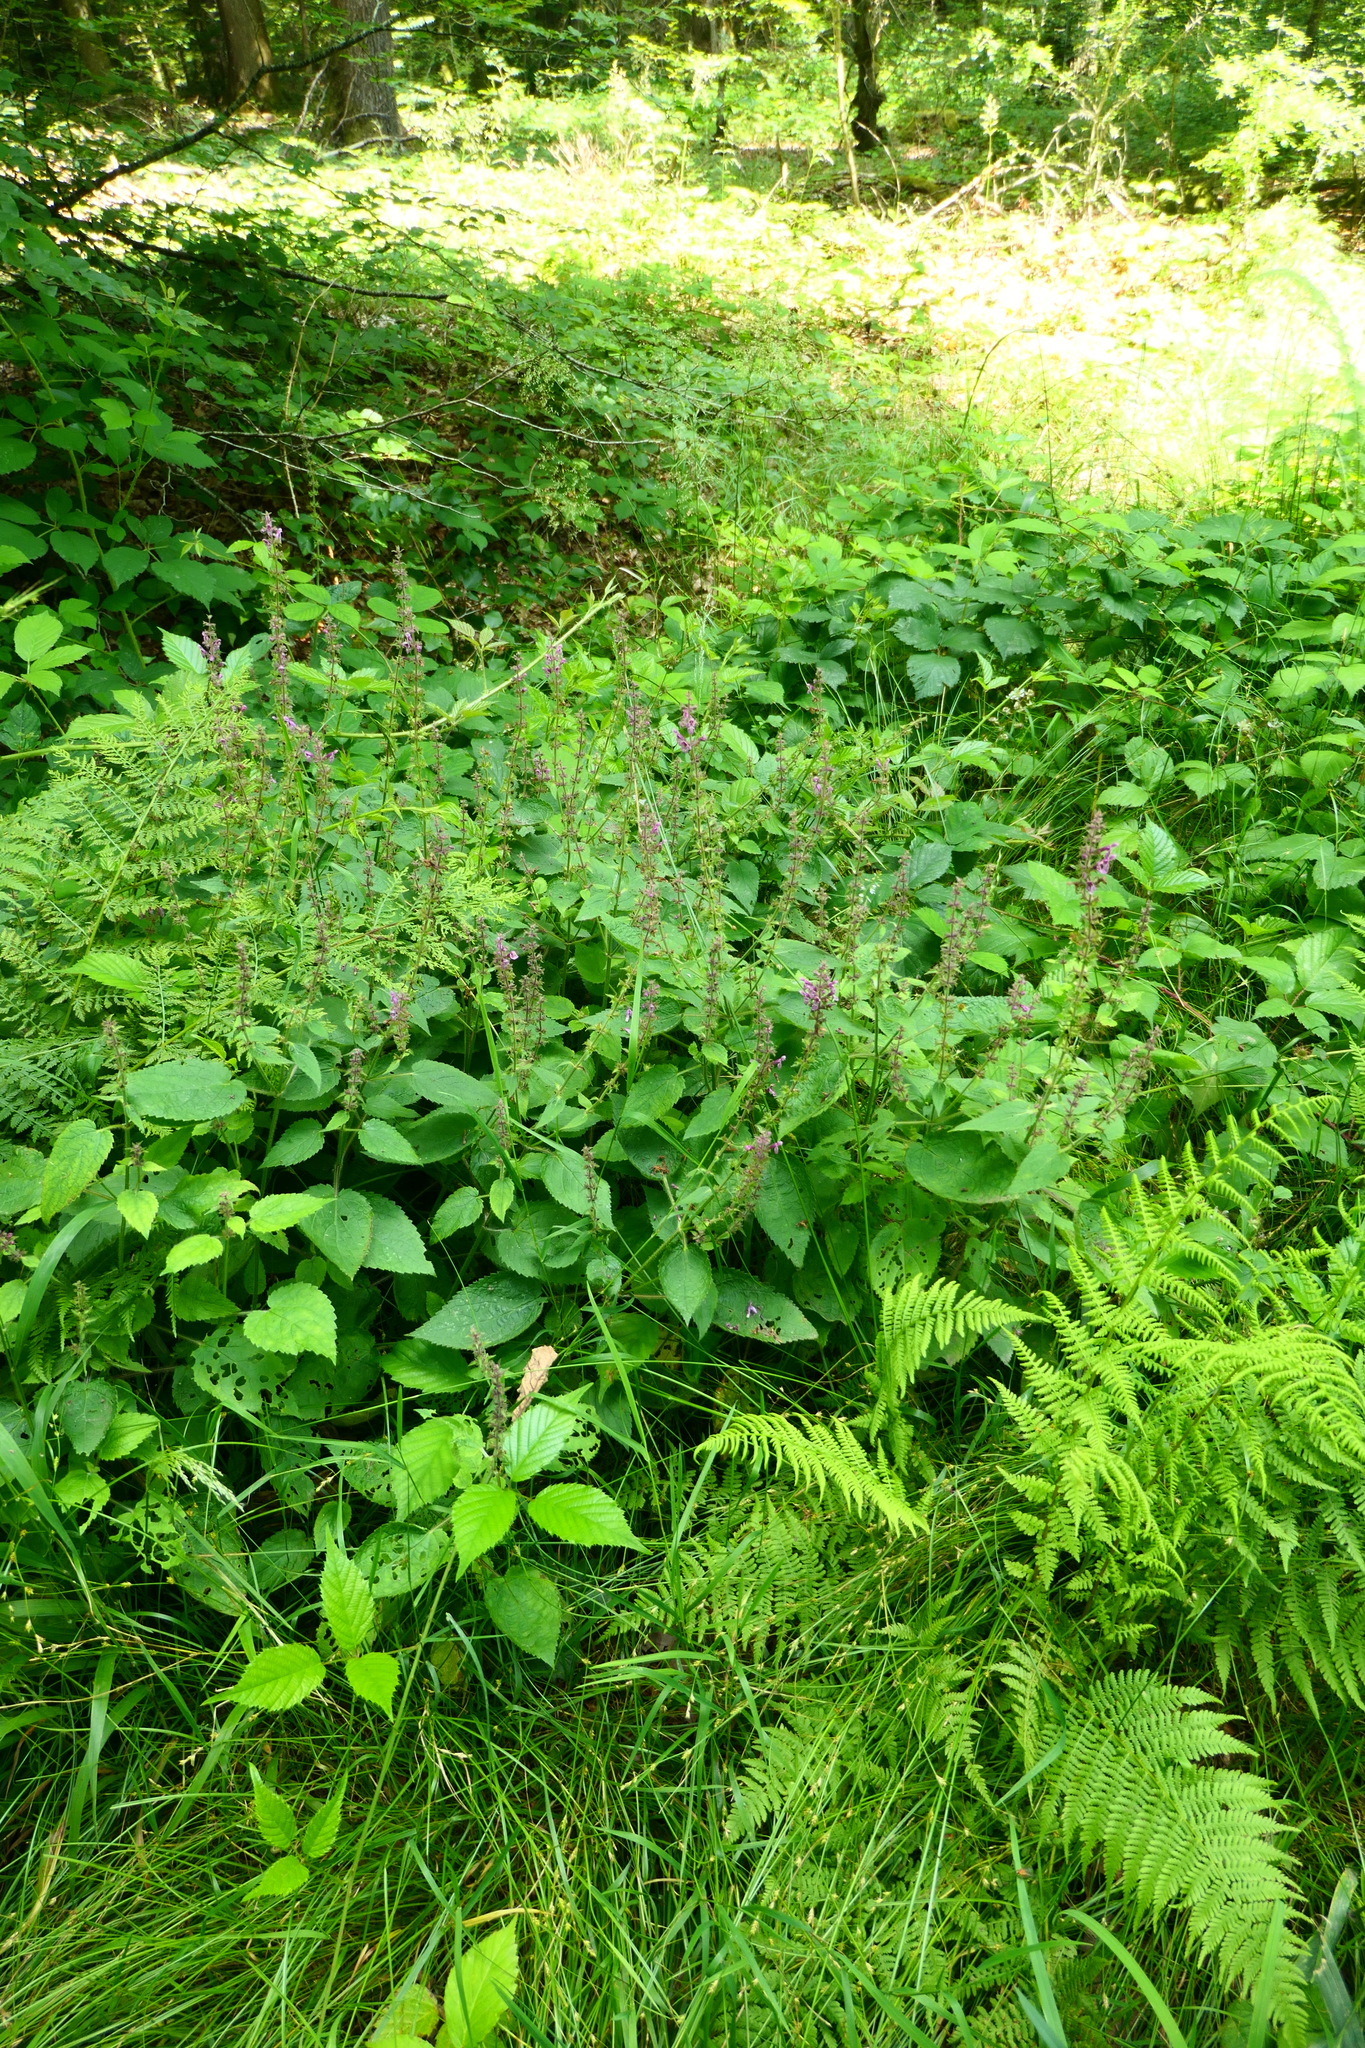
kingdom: Plantae
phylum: Tracheophyta
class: Magnoliopsida
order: Lamiales
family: Lamiaceae
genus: Stachys
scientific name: Stachys sylvatica
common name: Hedge woundwort
